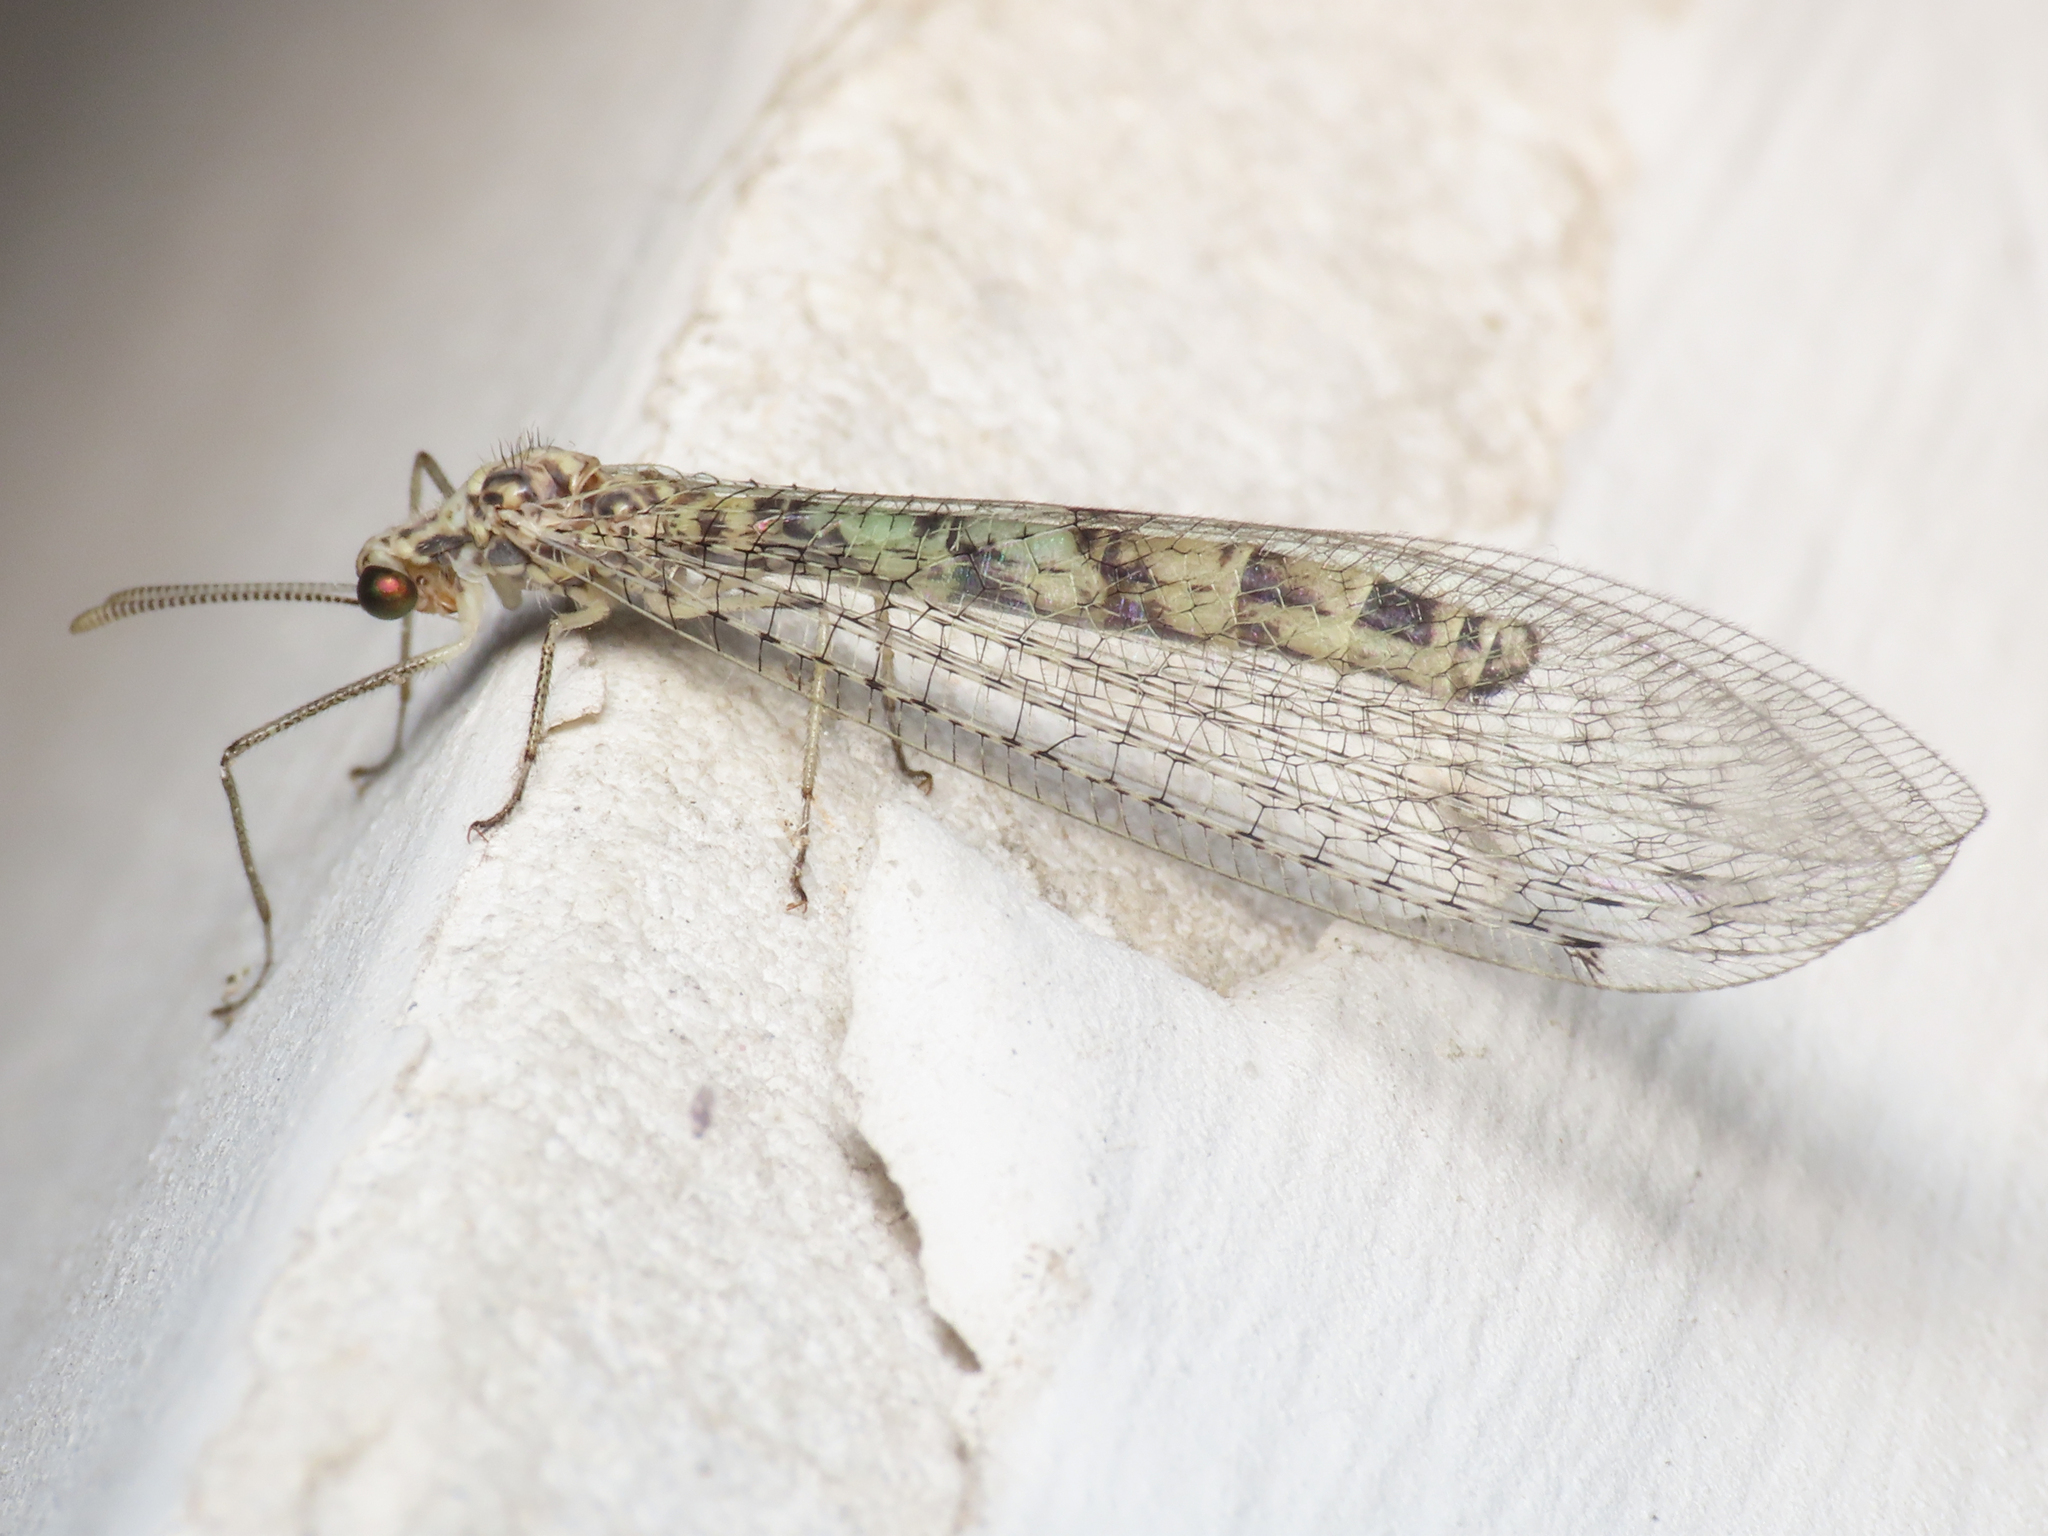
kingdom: Animalia
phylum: Arthropoda
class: Insecta
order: Neuroptera
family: Myrmeleontidae
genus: Gymnocnemia
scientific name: Gymnocnemia variegata
